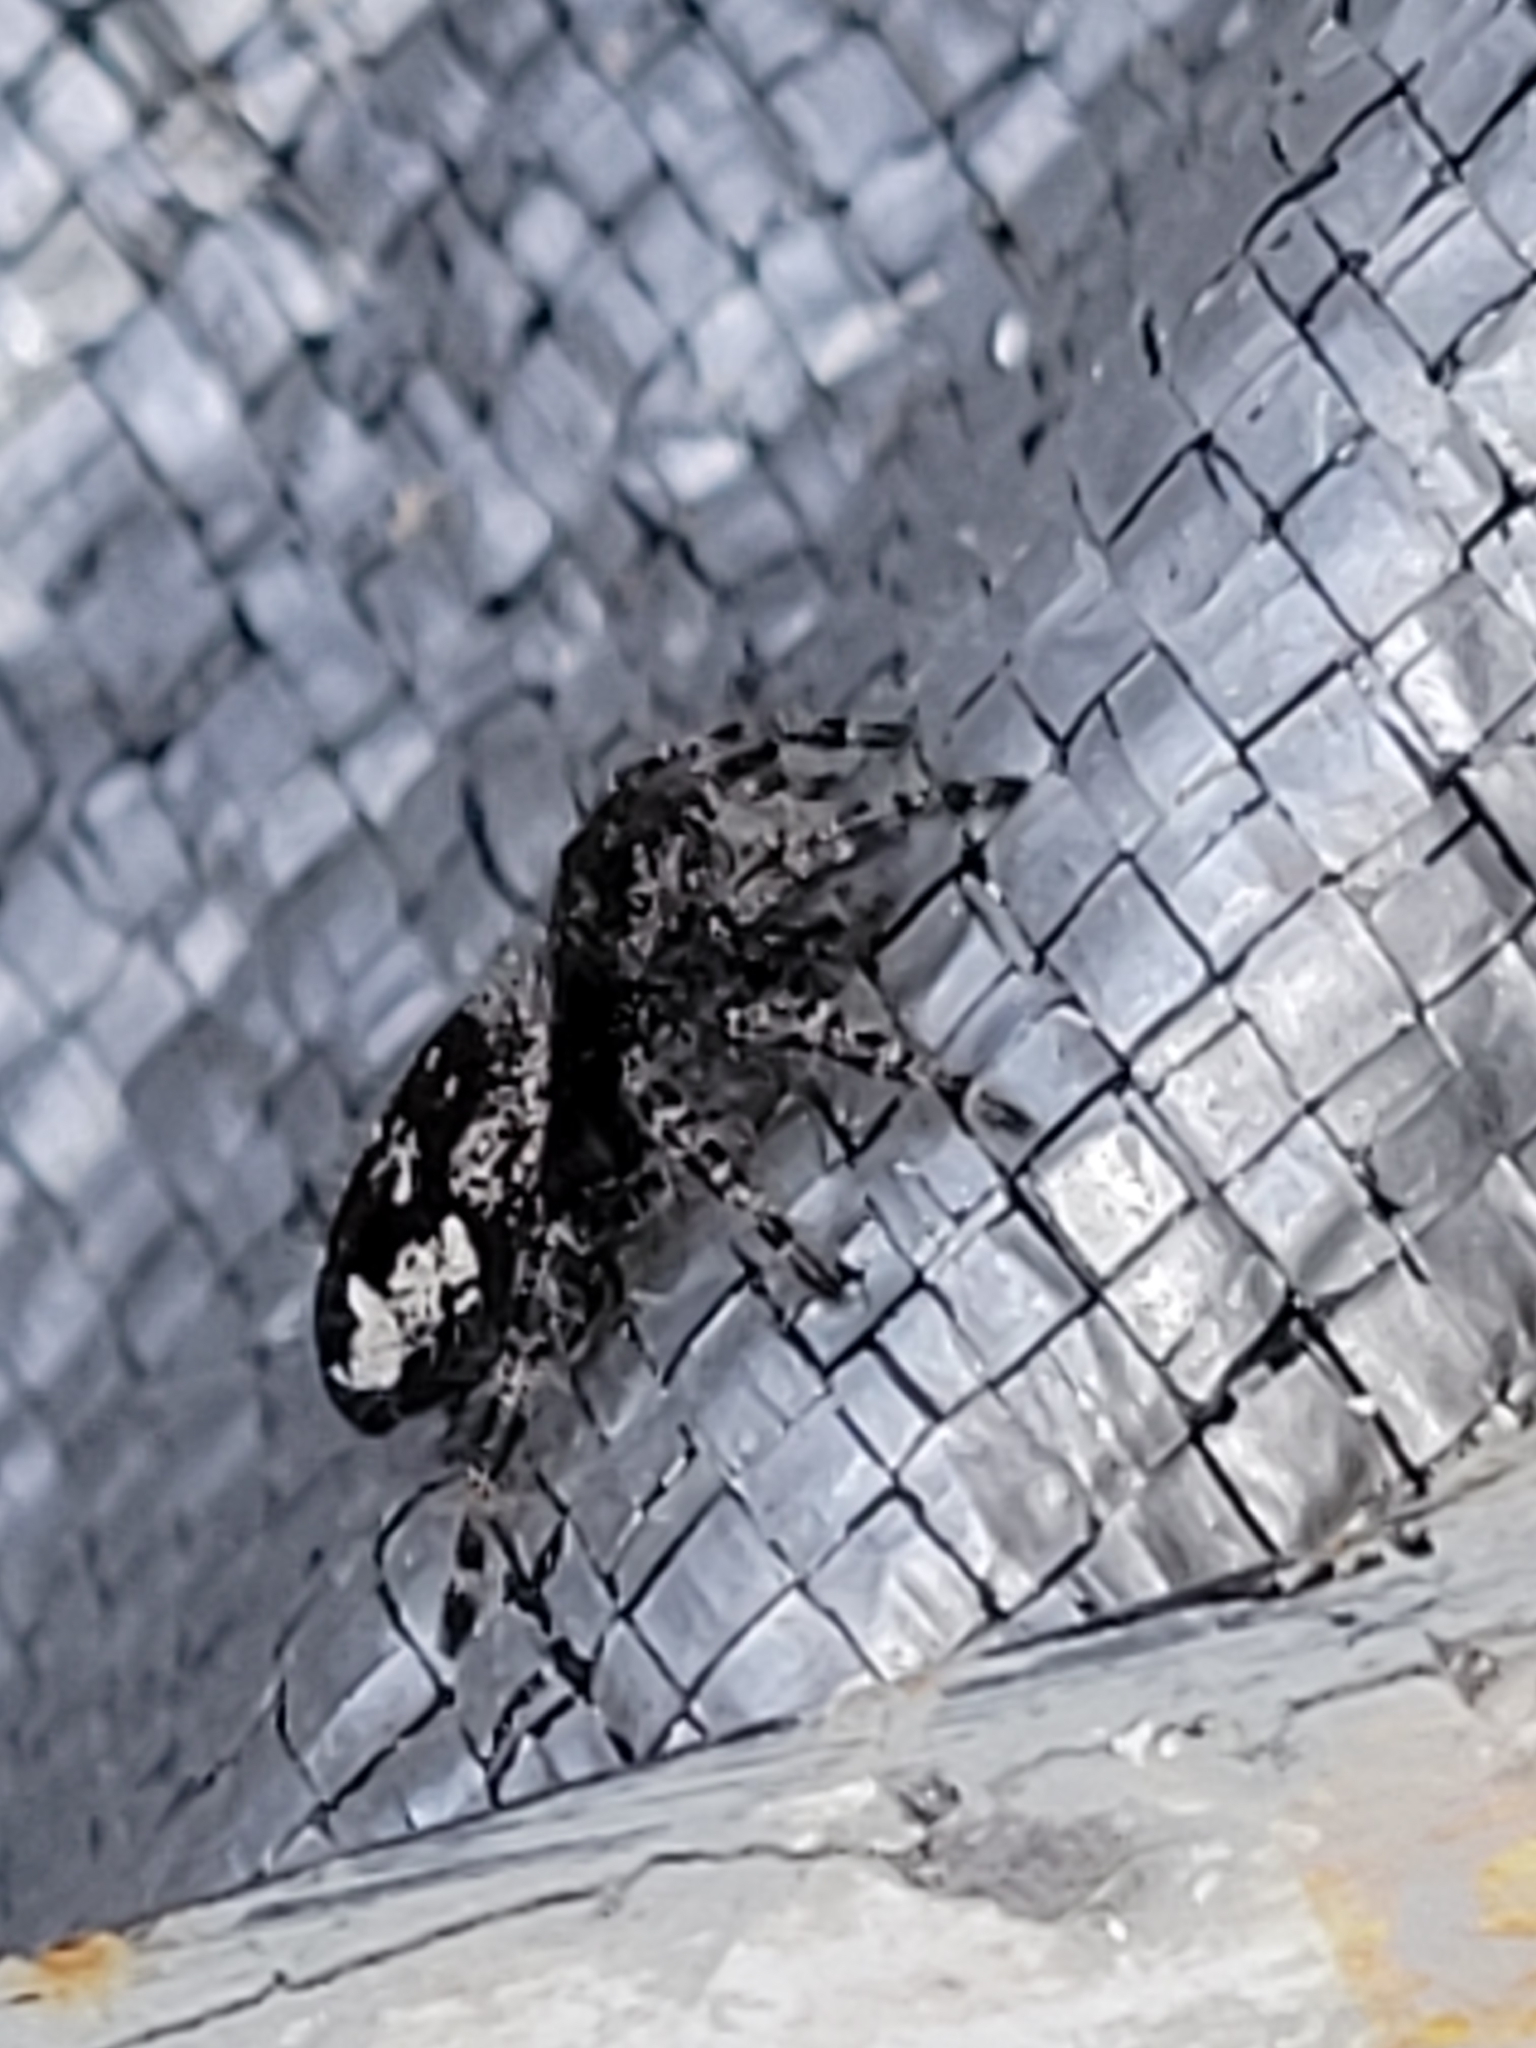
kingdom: Animalia
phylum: Arthropoda
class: Arachnida
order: Araneae
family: Salticidae
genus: Phidippus
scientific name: Phidippus borealis
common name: Boreal tufted jumping spider
